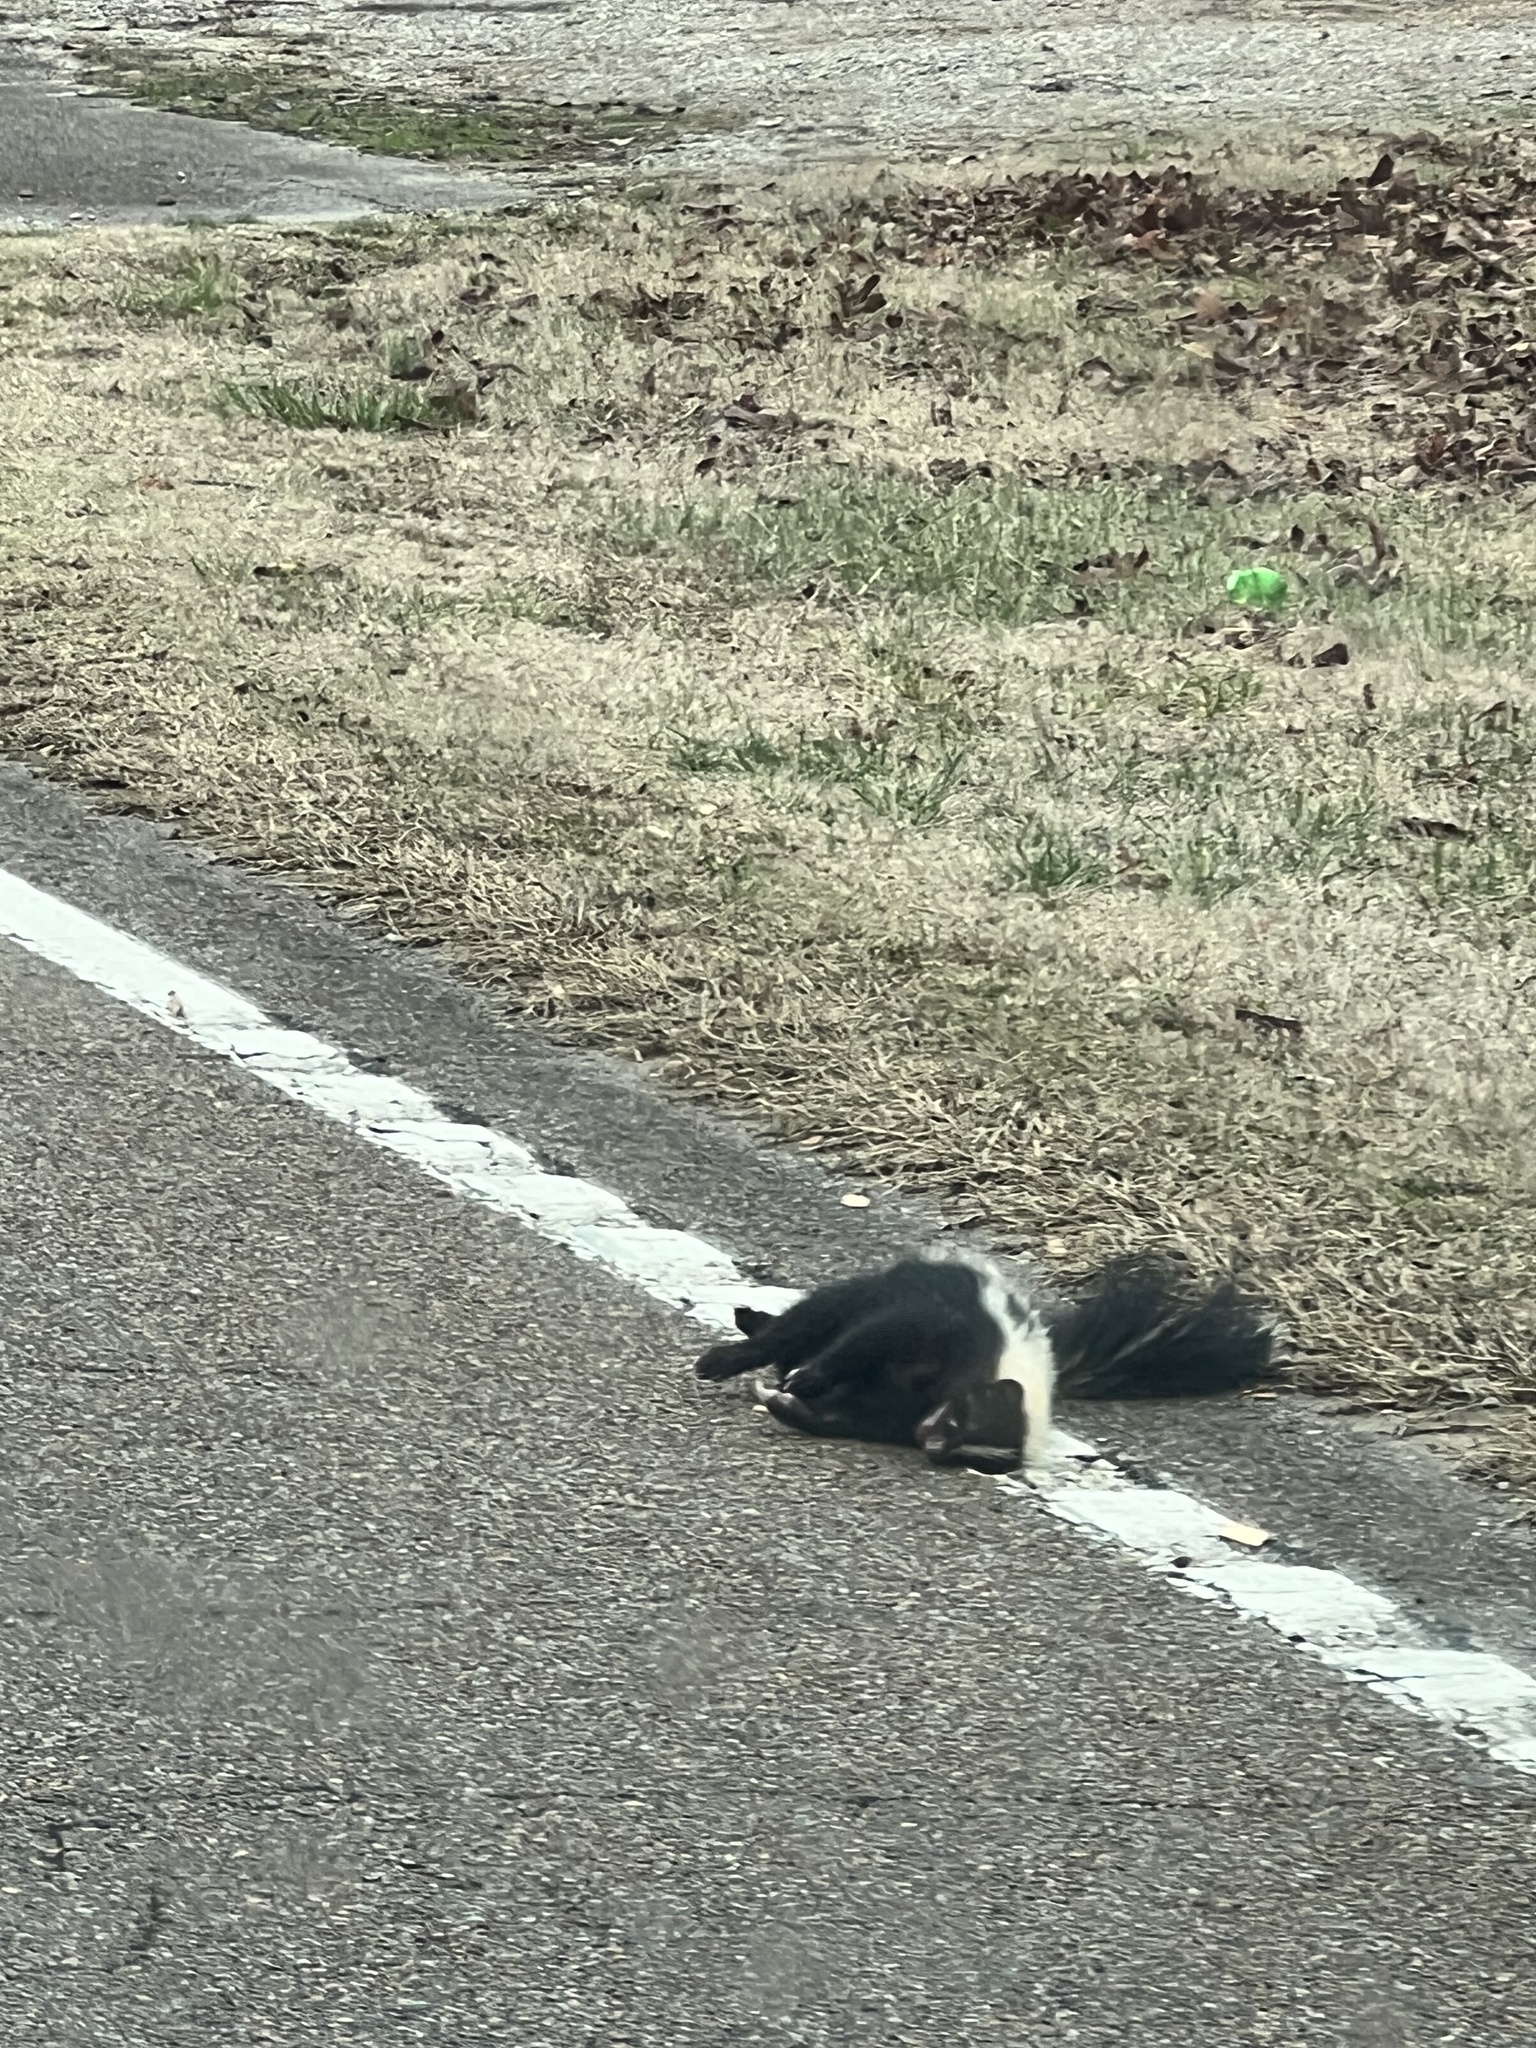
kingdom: Animalia
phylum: Chordata
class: Mammalia
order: Carnivora
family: Mephitidae
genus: Mephitis
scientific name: Mephitis mephitis
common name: Striped skunk
